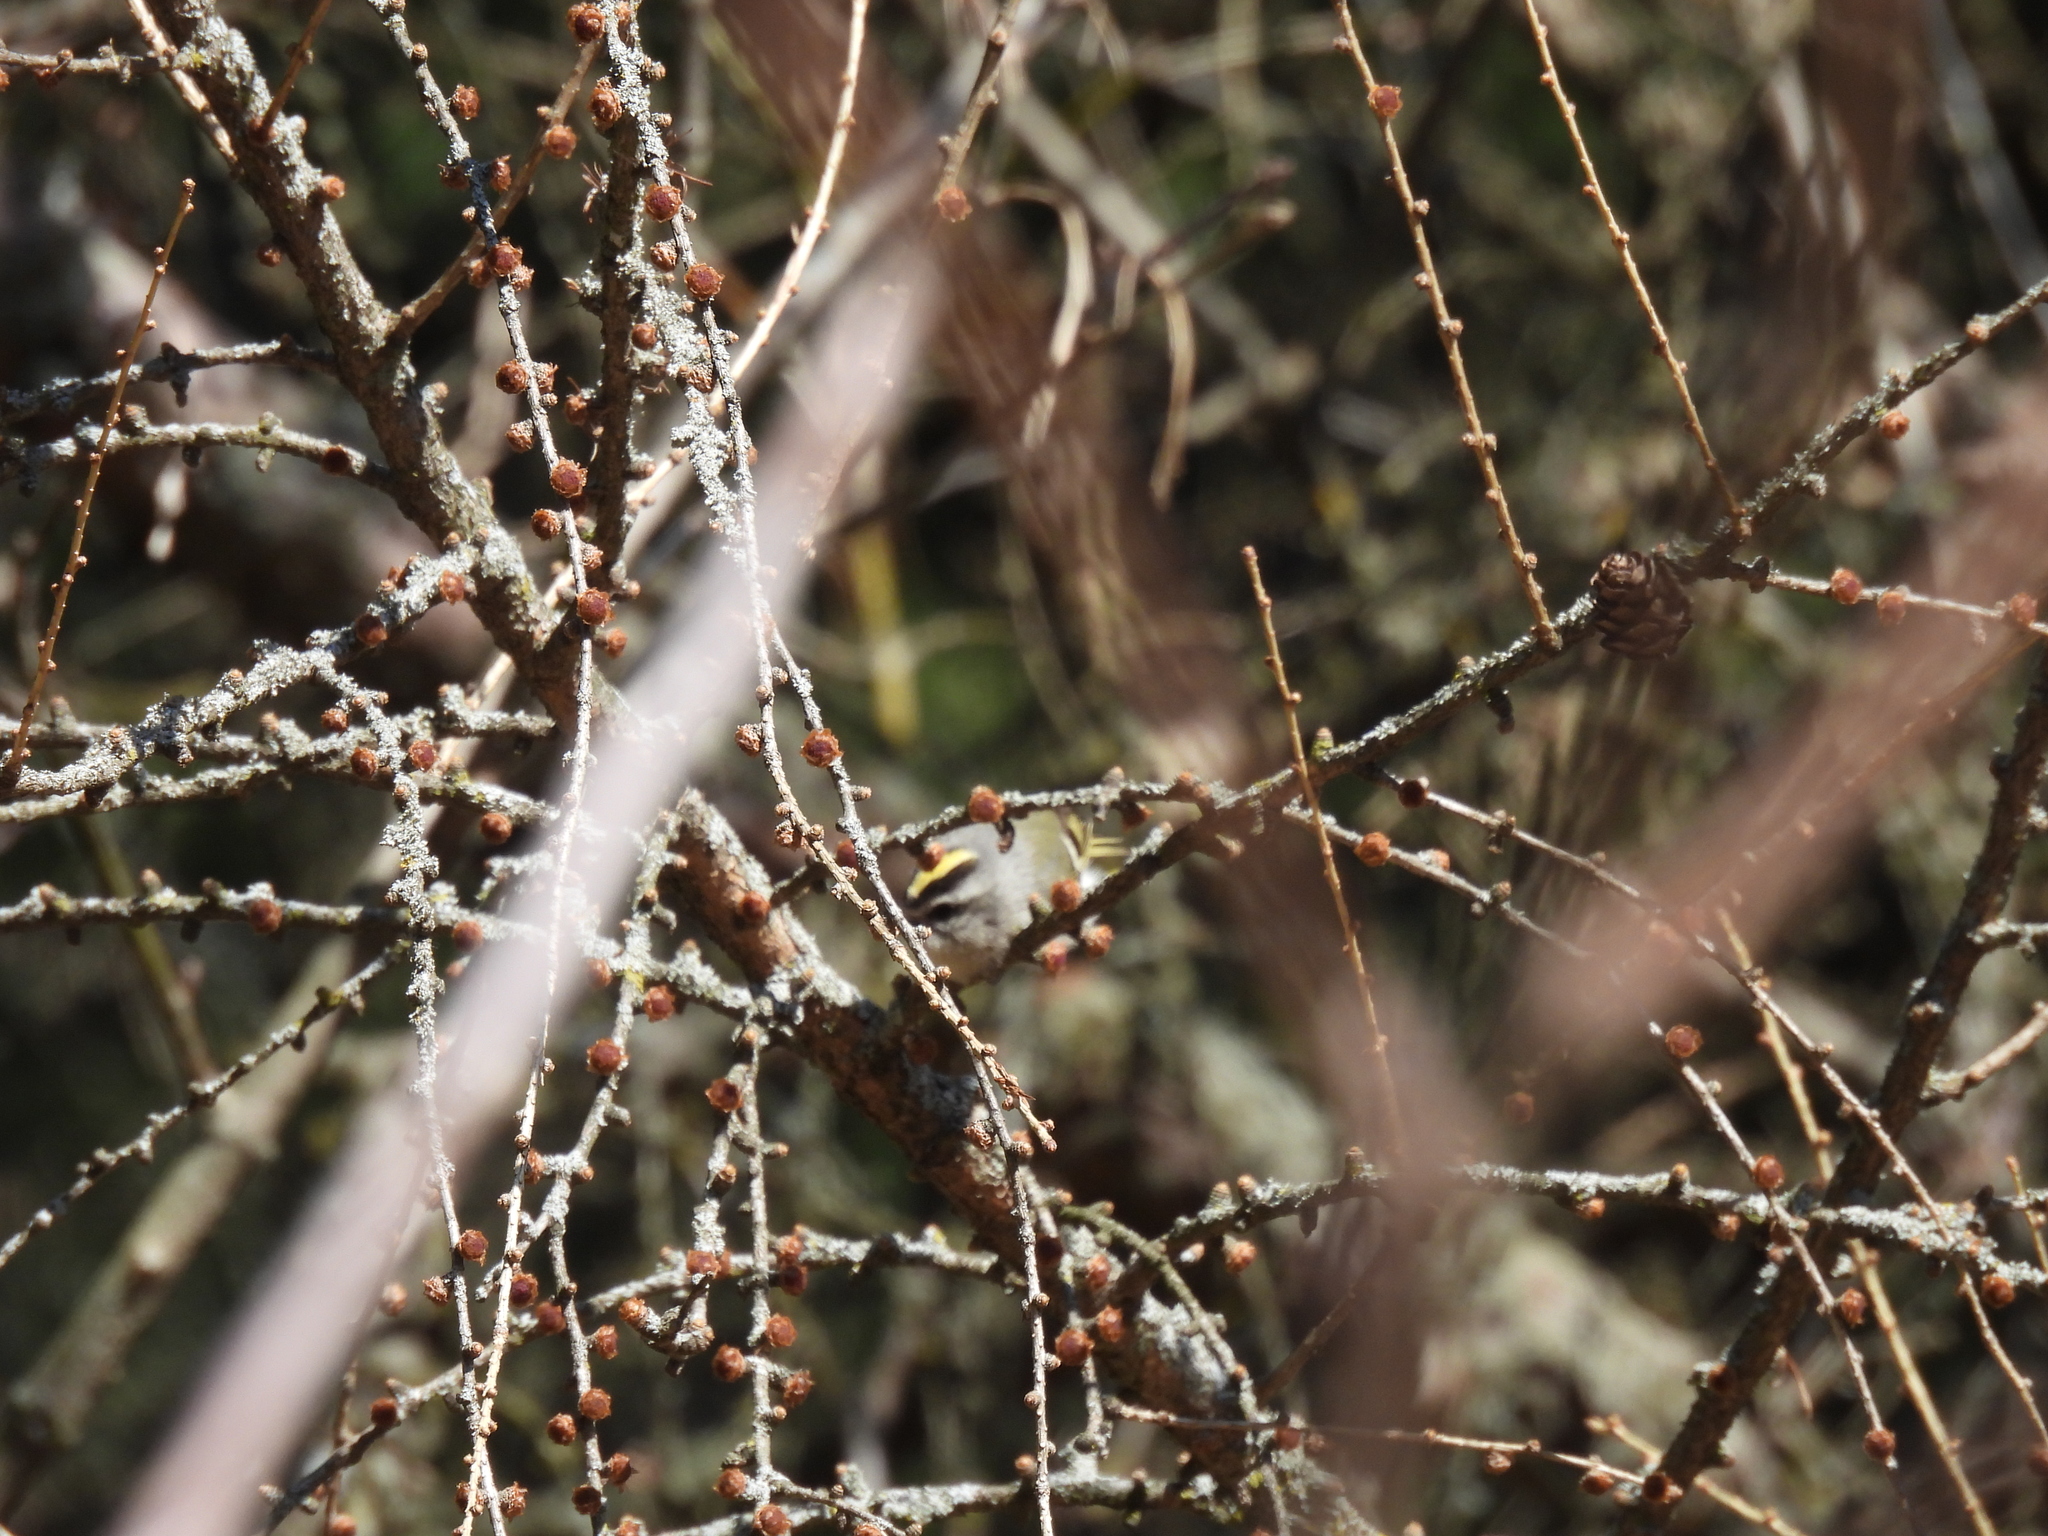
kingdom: Animalia
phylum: Chordata
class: Aves
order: Passeriformes
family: Regulidae
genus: Regulus
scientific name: Regulus satrapa
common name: Golden-crowned kinglet
